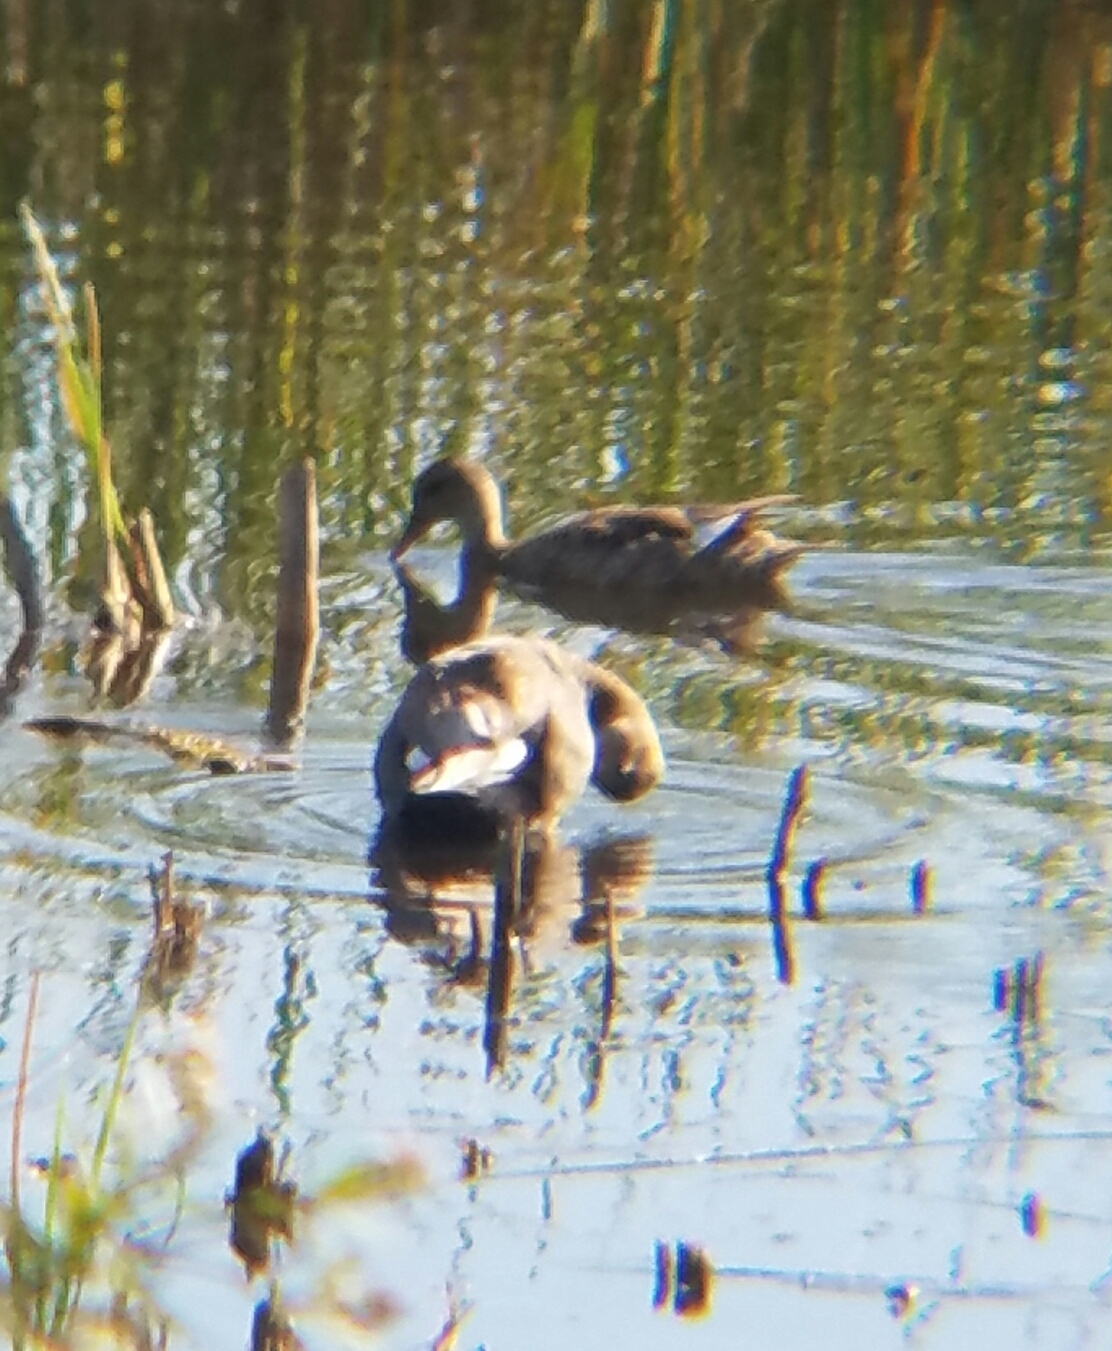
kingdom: Animalia
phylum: Chordata
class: Aves
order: Anseriformes
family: Anatidae
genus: Mareca
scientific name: Mareca strepera
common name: Gadwall
